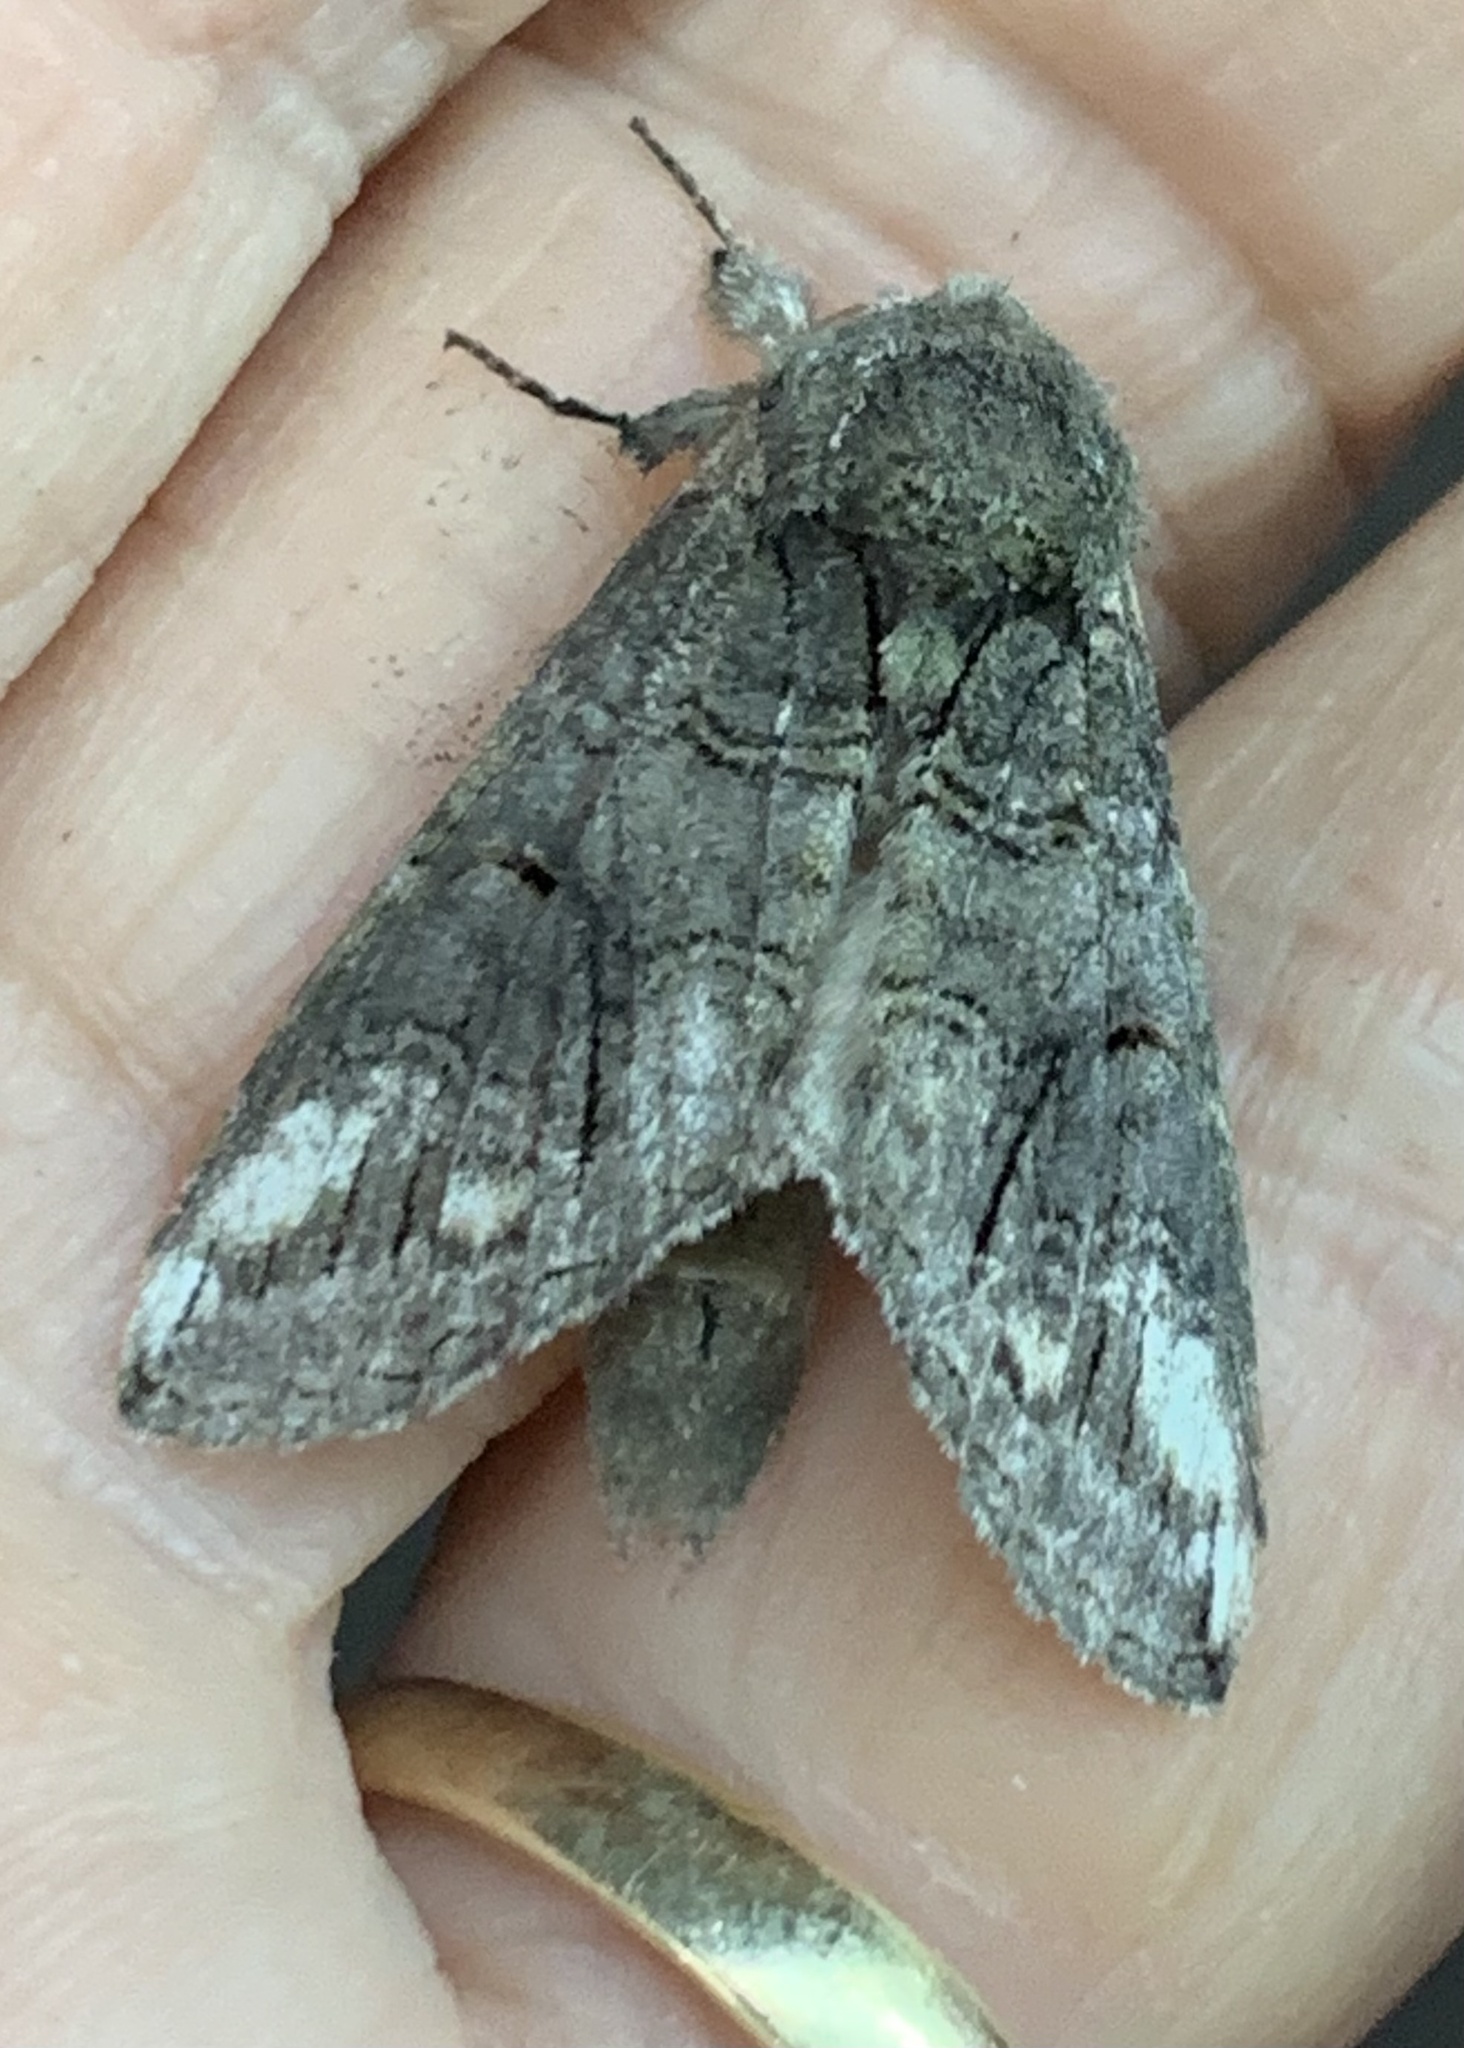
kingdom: Animalia
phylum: Arthropoda
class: Insecta
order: Lepidoptera
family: Notodontidae
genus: Heterocampa
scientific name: Heterocampa obliqua
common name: Oblique heterocampa
